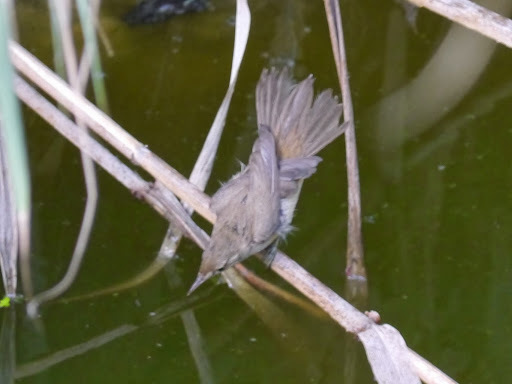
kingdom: Animalia
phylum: Chordata
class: Aves
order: Passeriformes
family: Acrocephalidae
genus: Acrocephalus
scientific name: Acrocephalus scirpaceus
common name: Eurasian reed warbler
